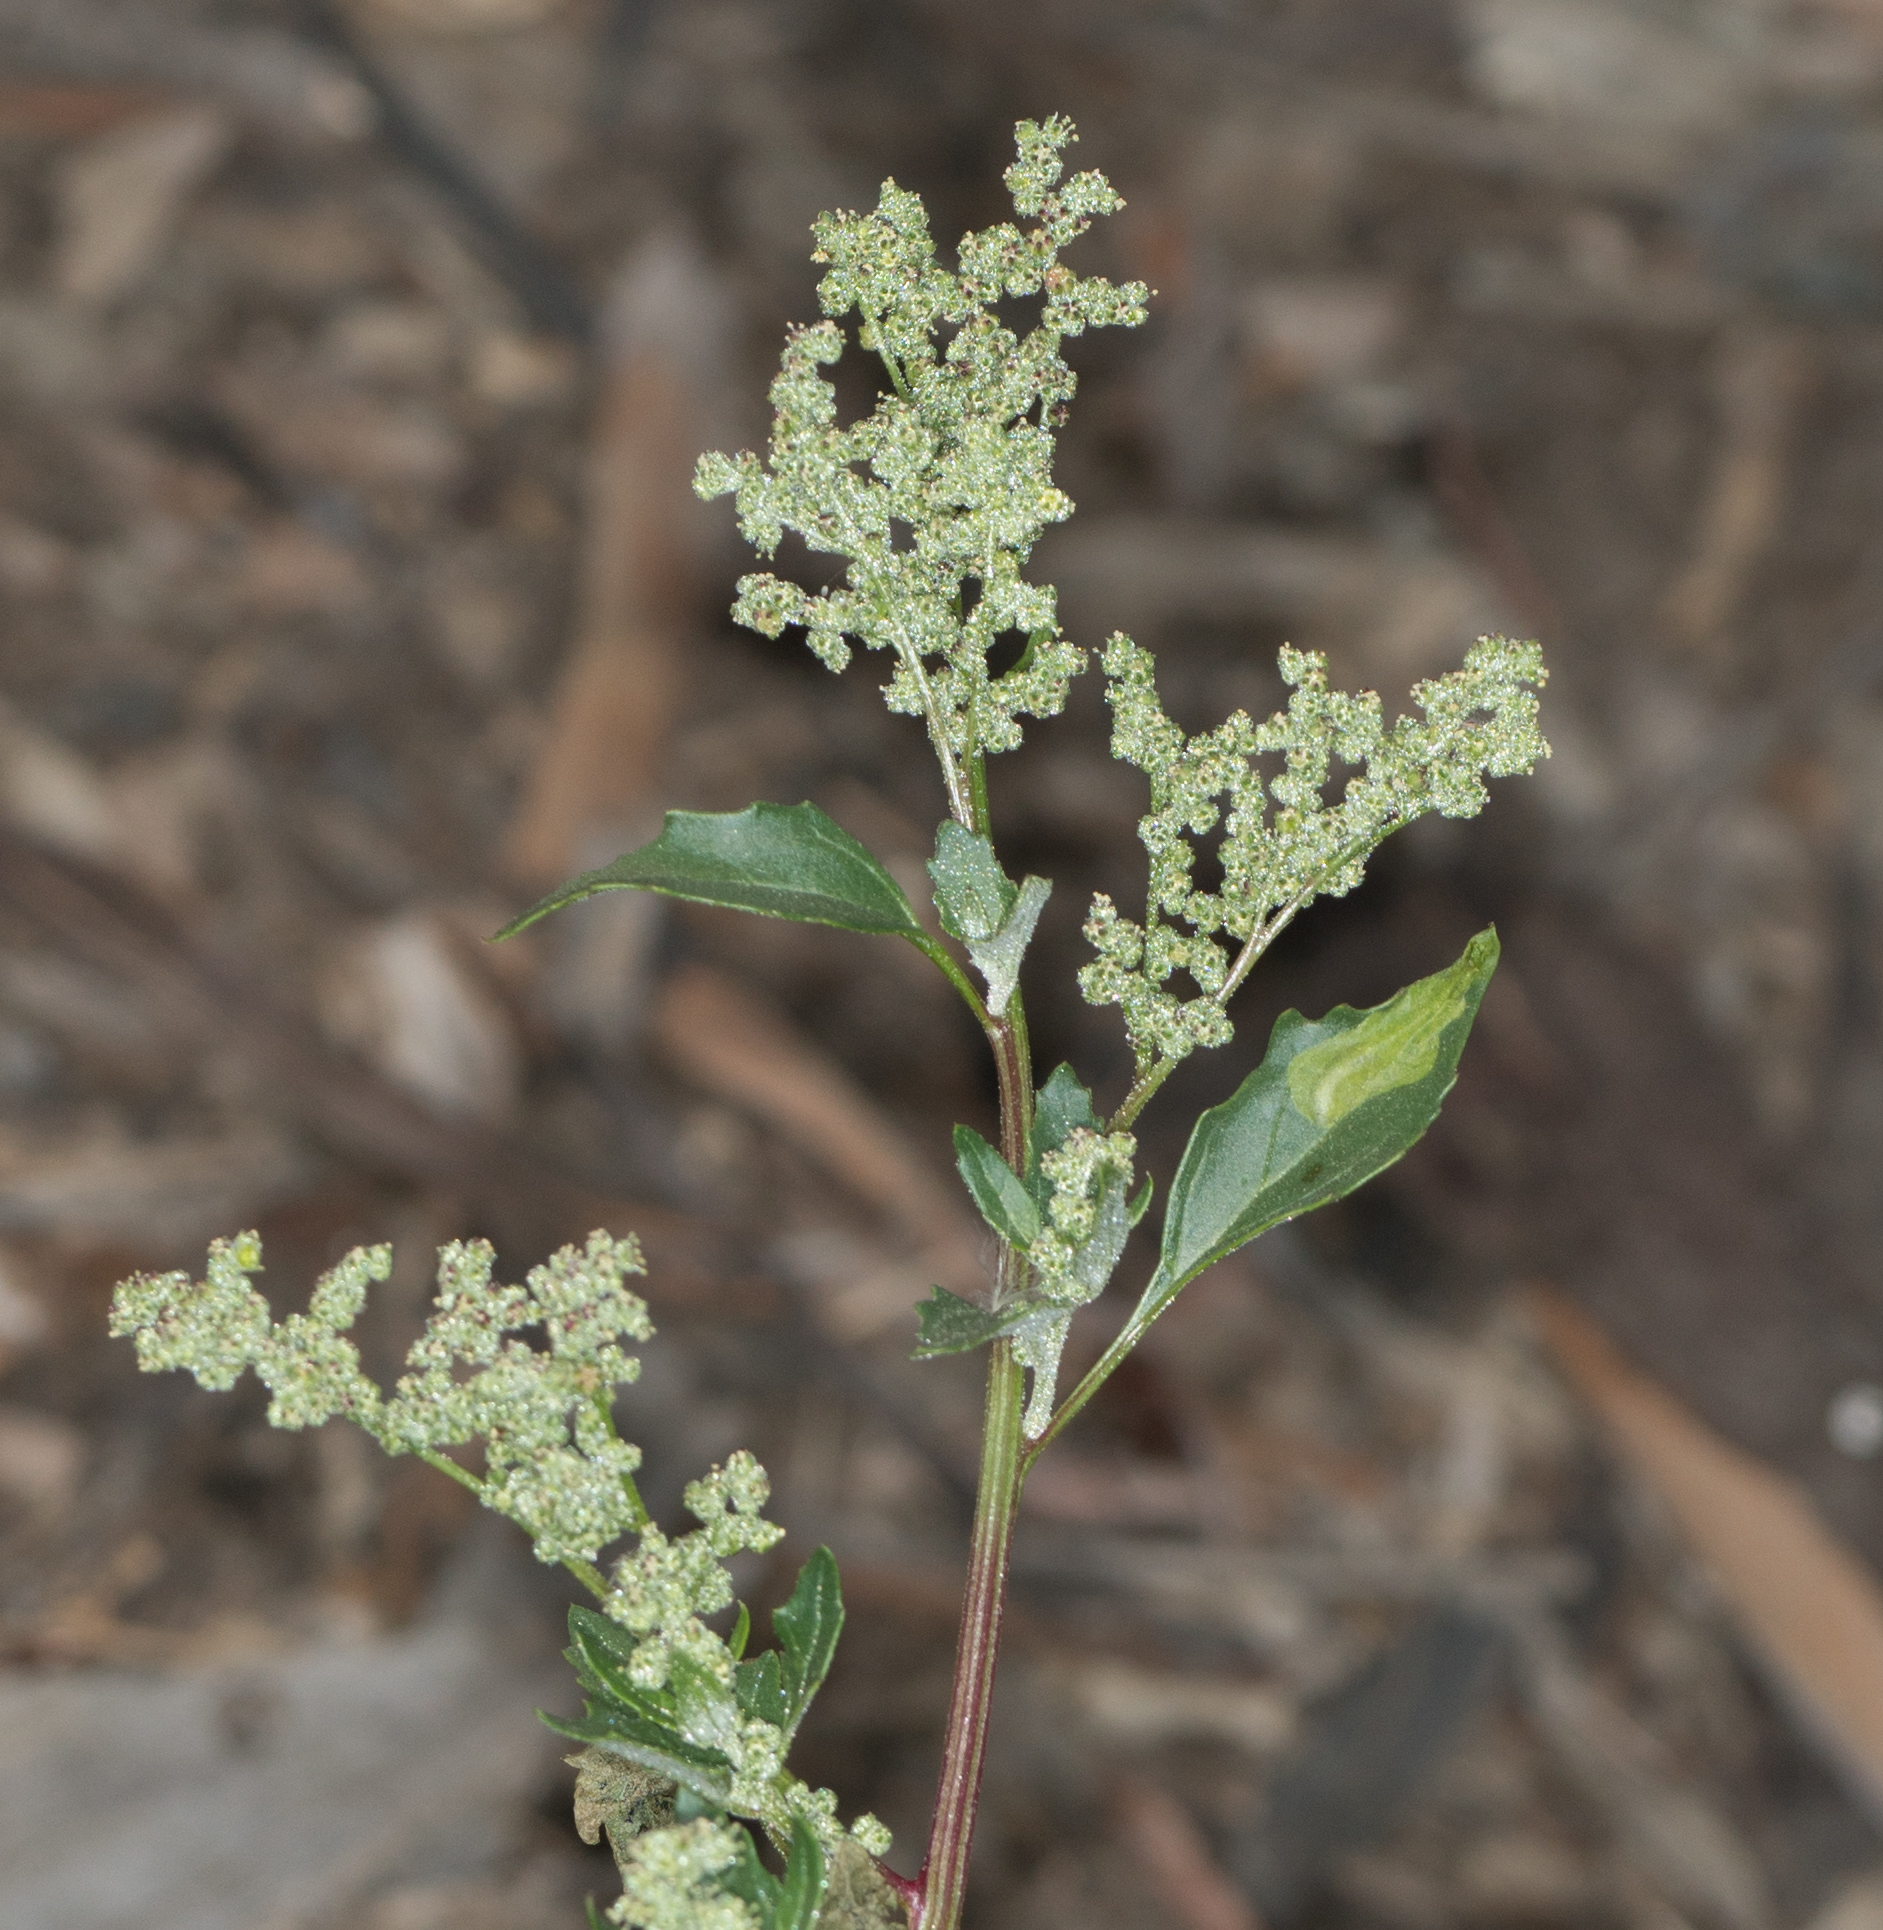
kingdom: Plantae
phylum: Tracheophyta
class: Magnoliopsida
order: Caryophyllales
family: Amaranthaceae
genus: Chenopodiastrum
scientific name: Chenopodiastrum murale
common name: Sowbane
